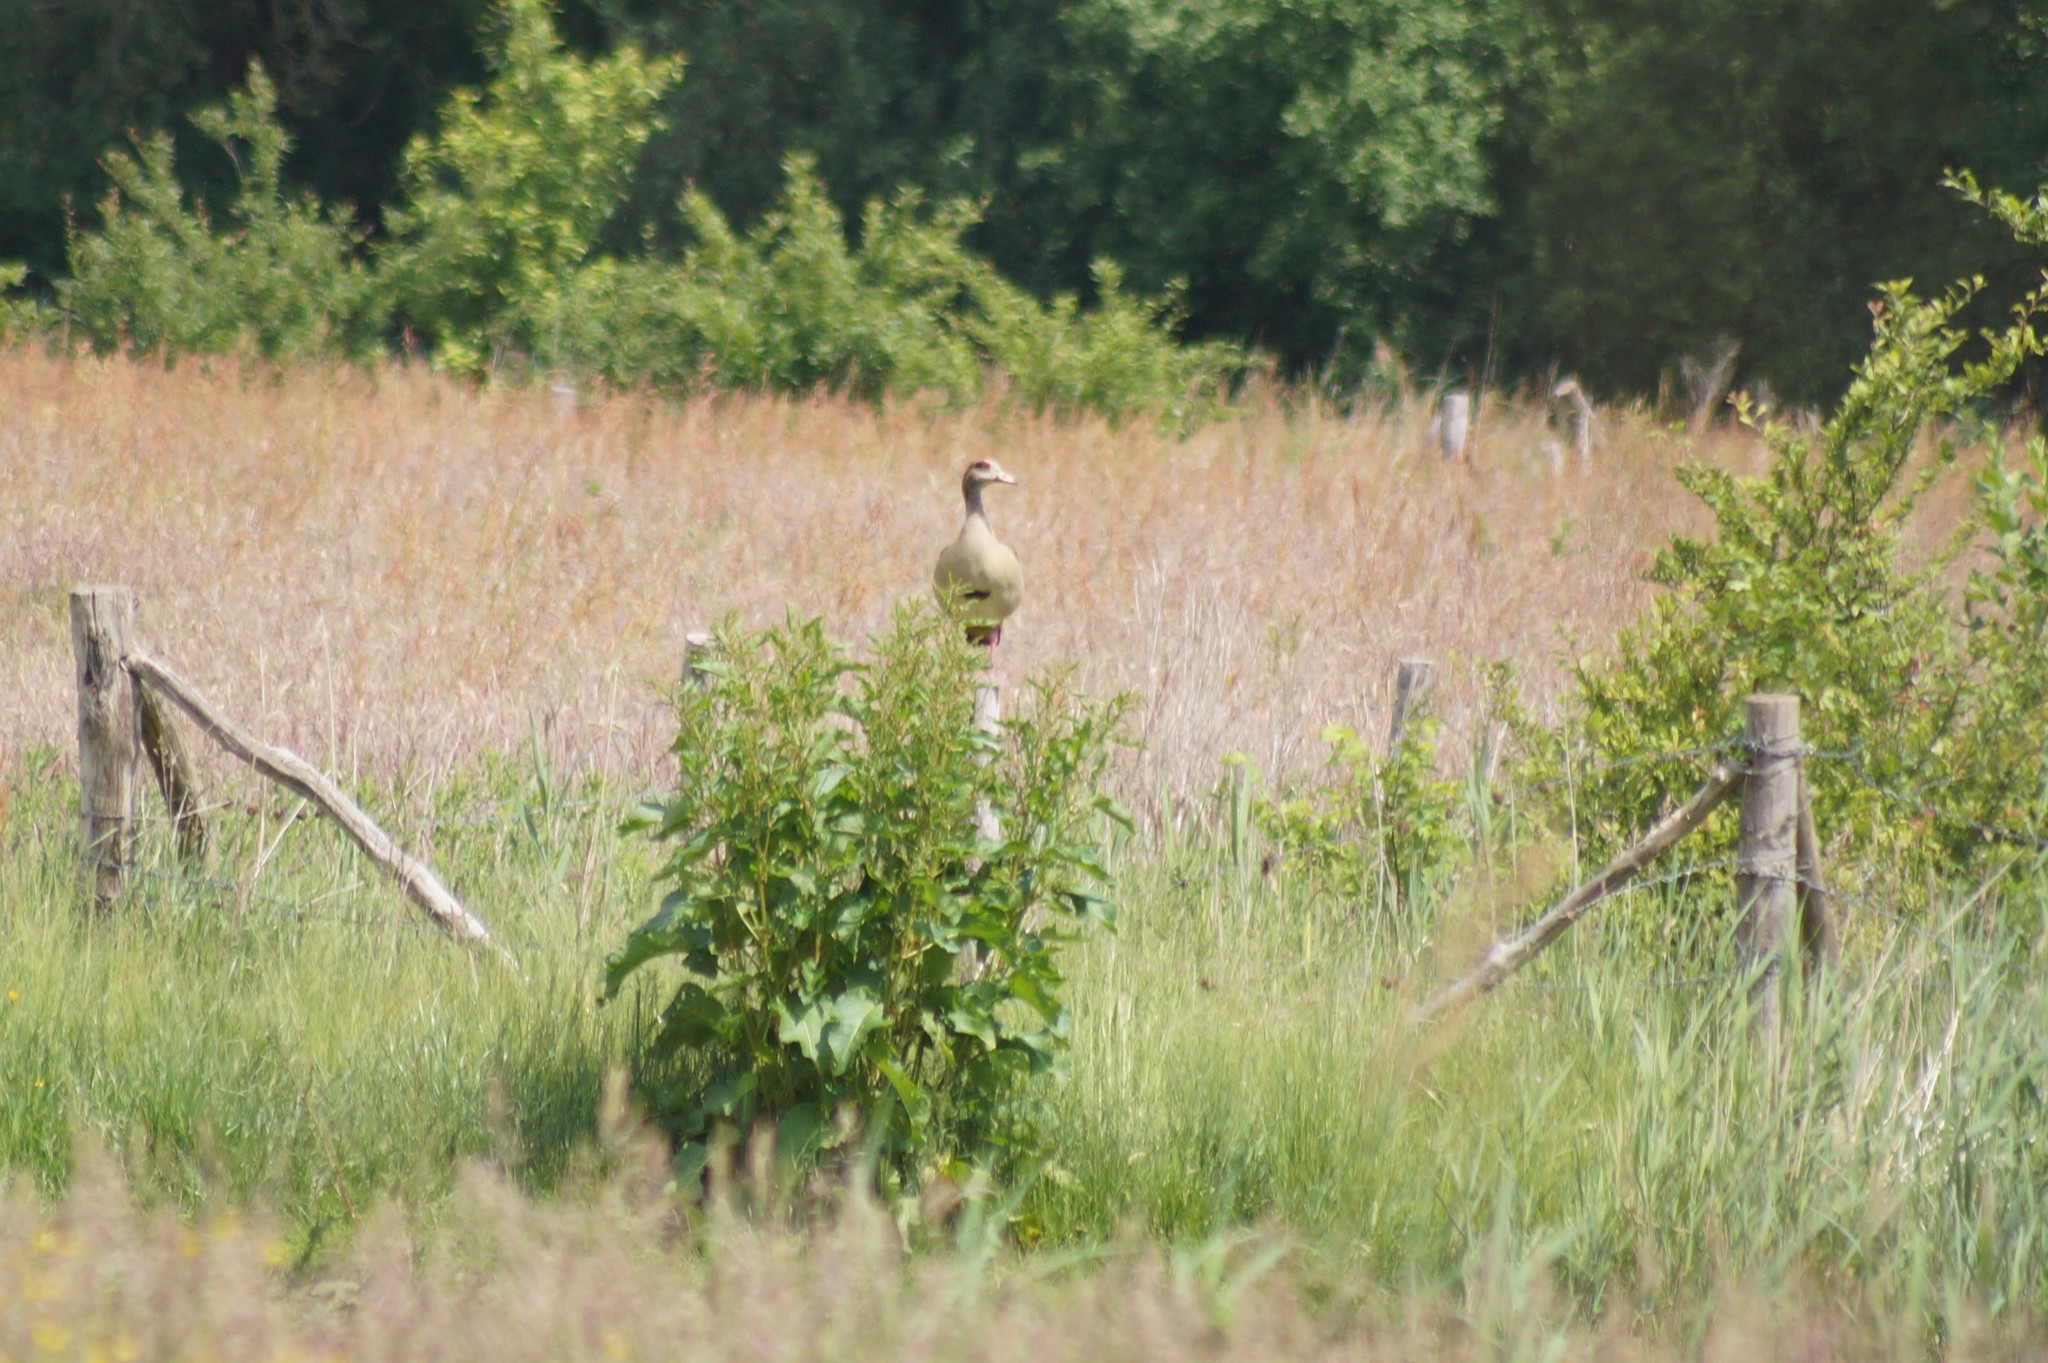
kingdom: Animalia
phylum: Chordata
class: Aves
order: Anseriformes
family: Anatidae
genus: Alopochen
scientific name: Alopochen aegyptiaca
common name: Egyptian goose
